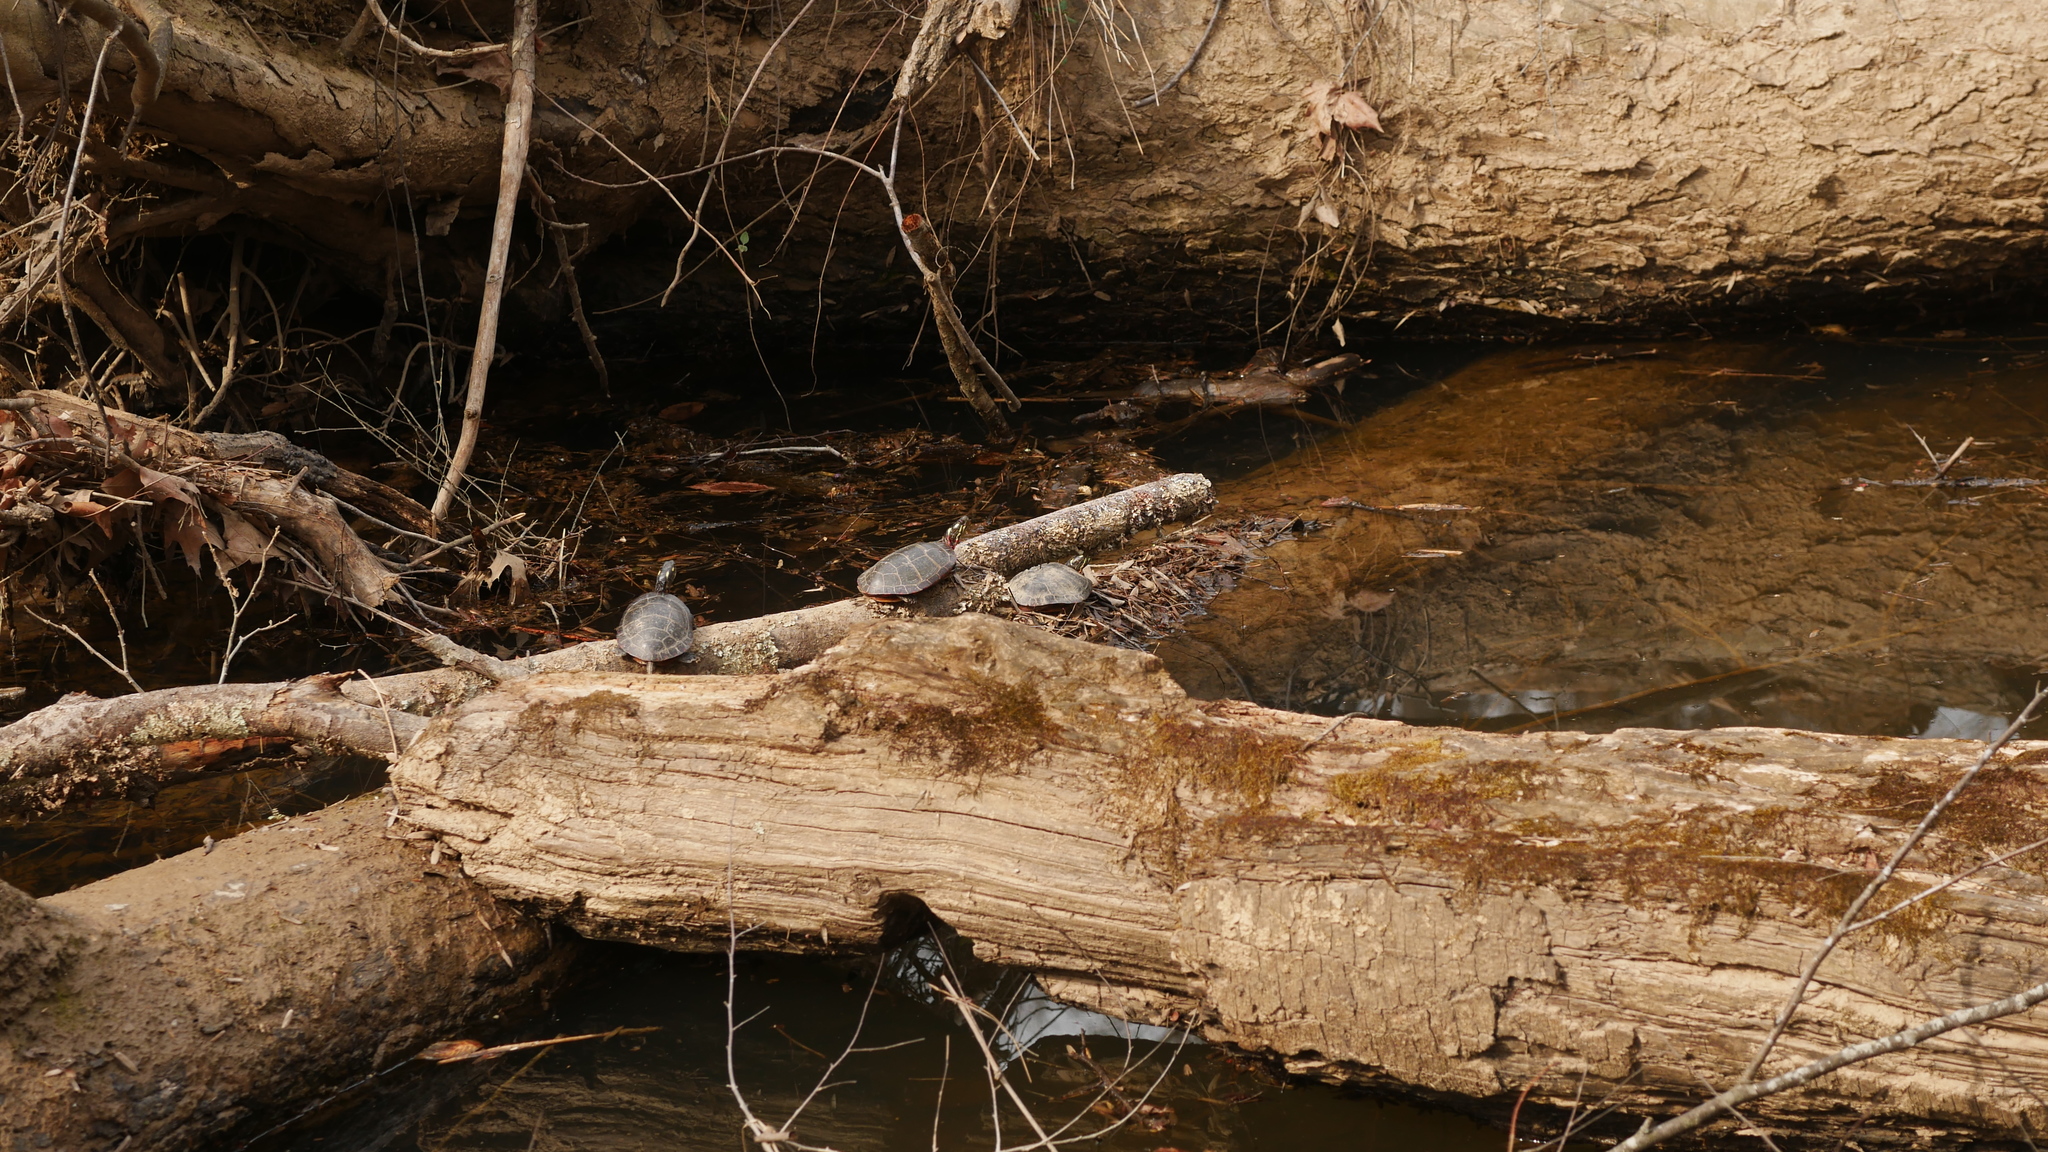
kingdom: Animalia
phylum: Chordata
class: Testudines
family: Emydidae
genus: Chrysemys
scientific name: Chrysemys picta
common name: Painted turtle
